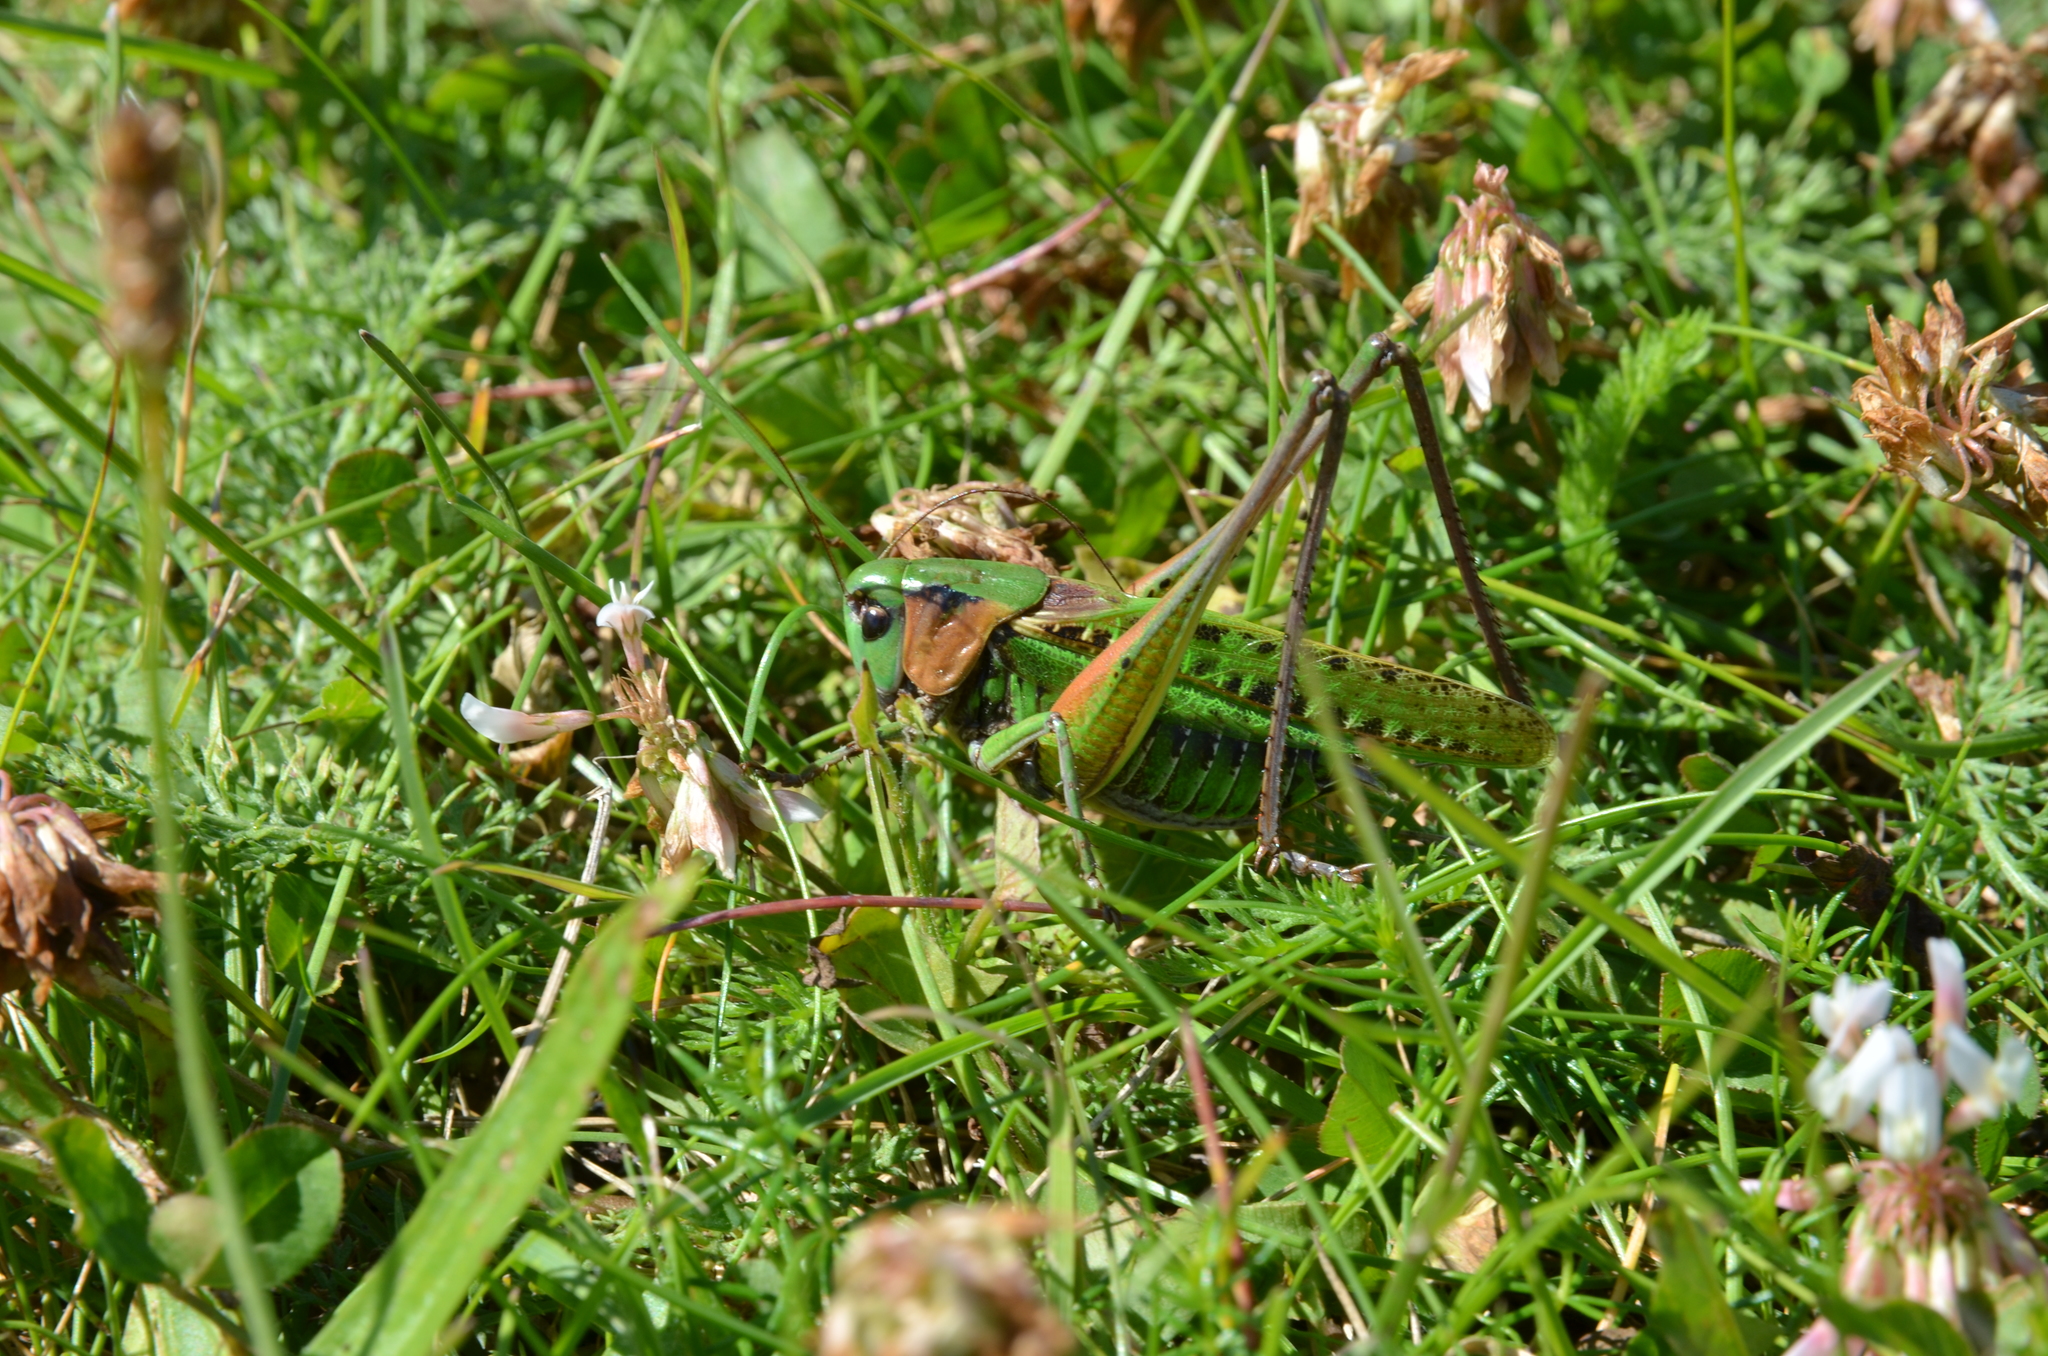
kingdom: Animalia
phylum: Arthropoda
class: Insecta
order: Orthoptera
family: Tettigoniidae
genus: Decticus
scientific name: Decticus verrucivorus
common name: Wart-biter
